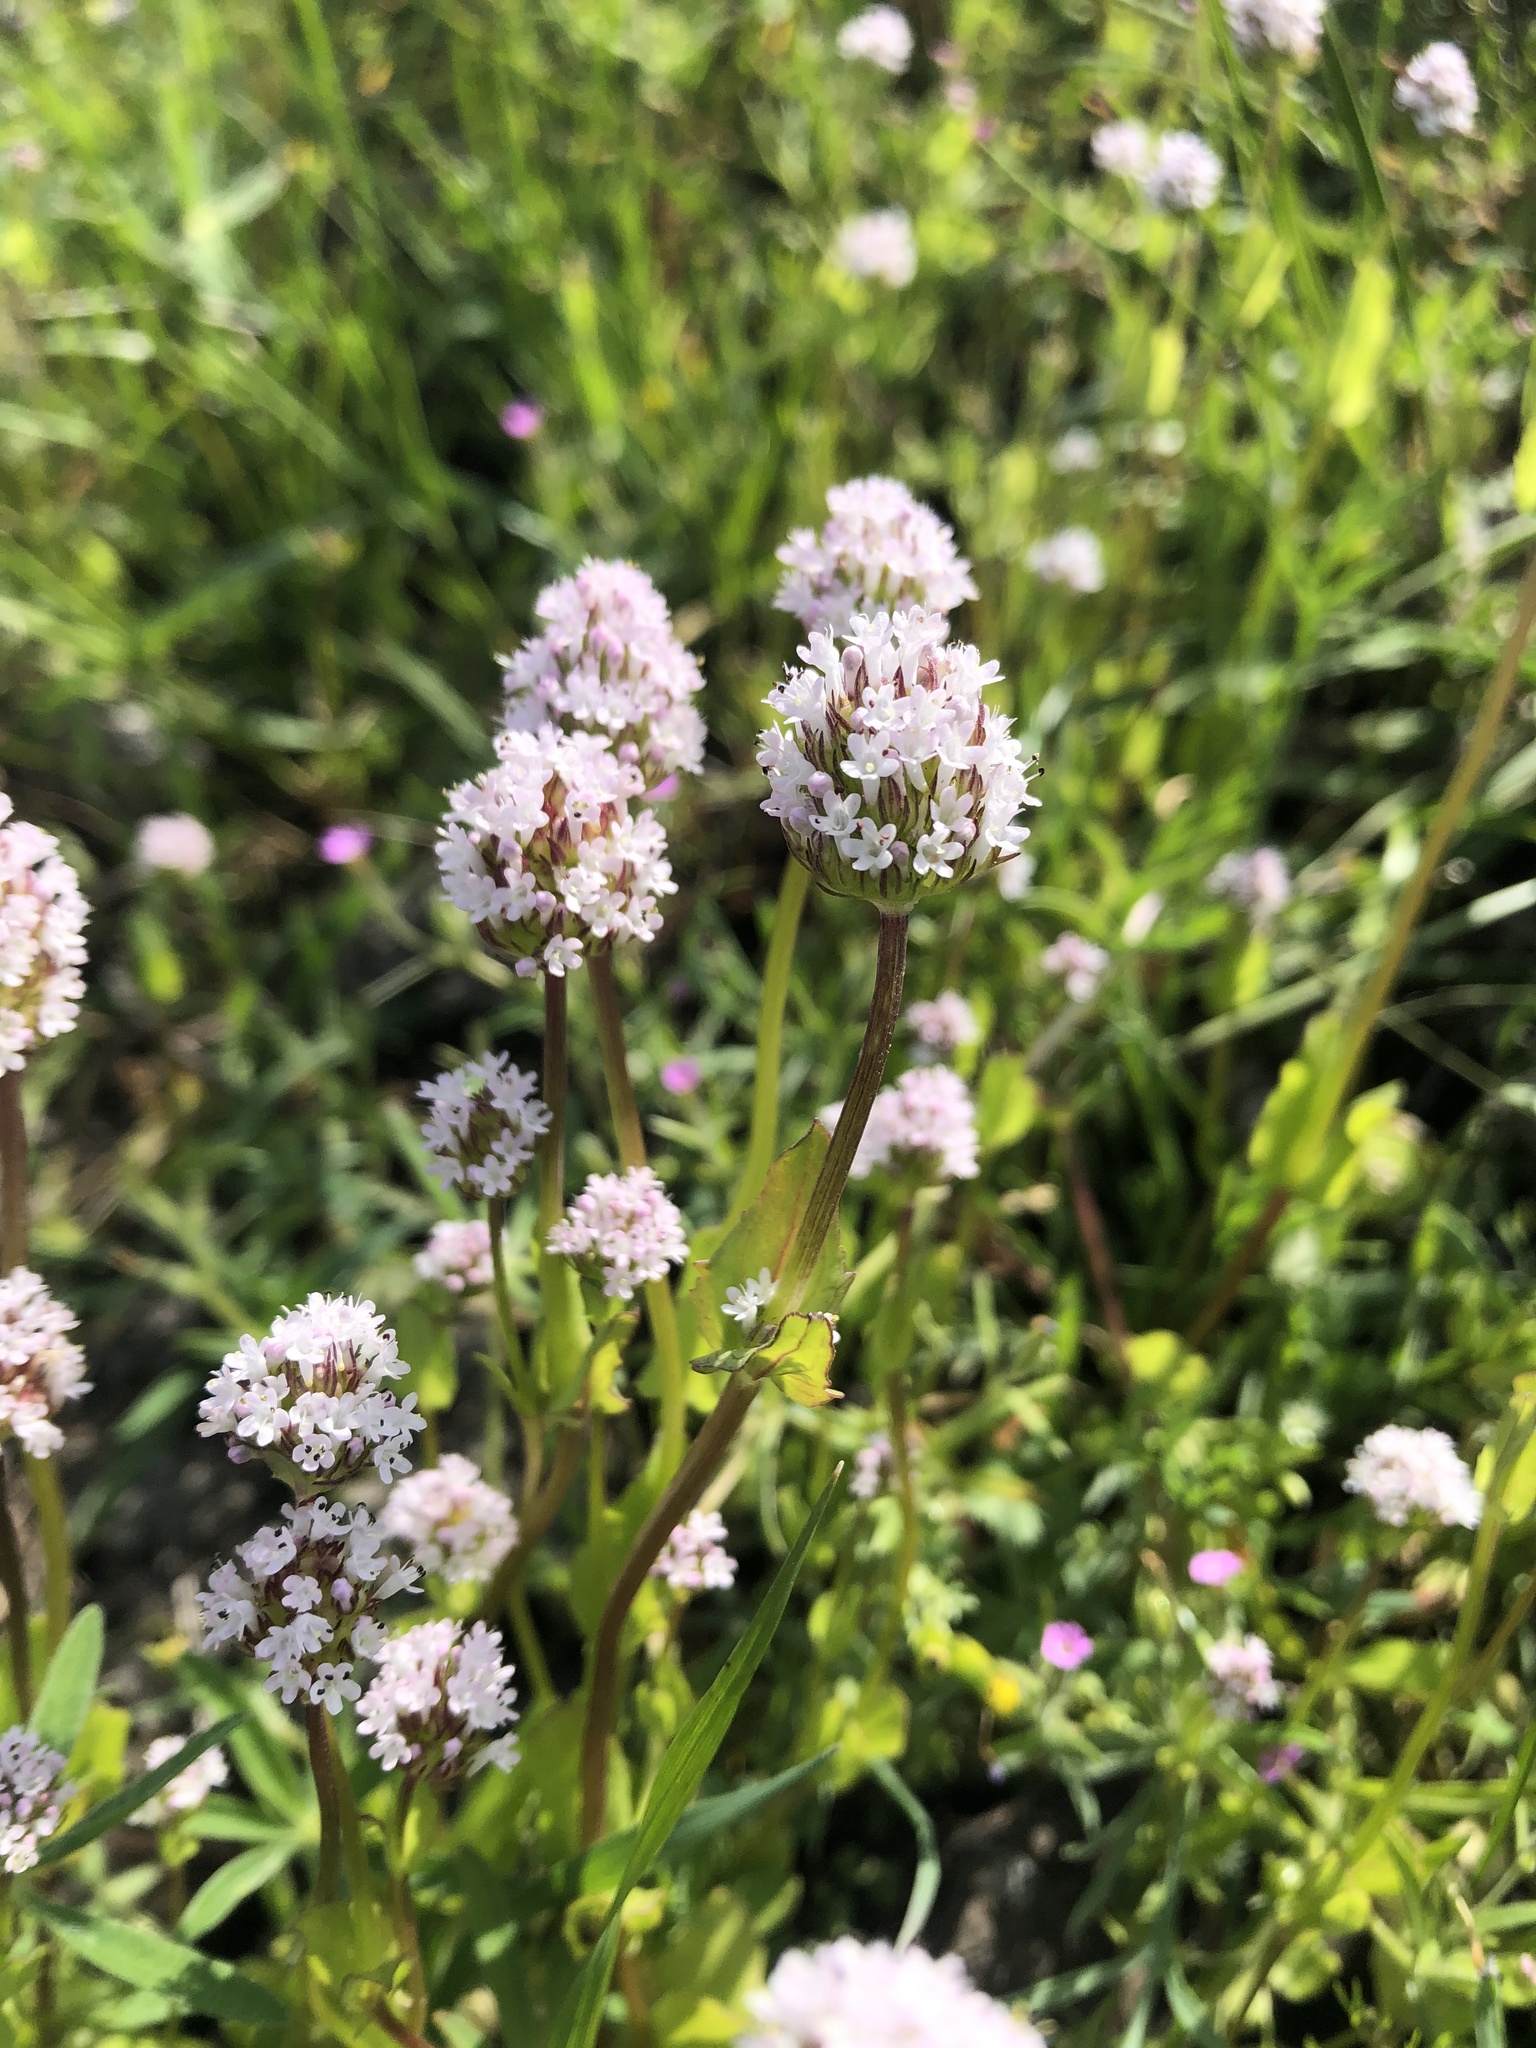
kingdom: Plantae
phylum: Tracheophyta
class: Magnoliopsida
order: Dipsacales
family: Caprifoliaceae
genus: Plectritis
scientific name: Plectritis macroptera
